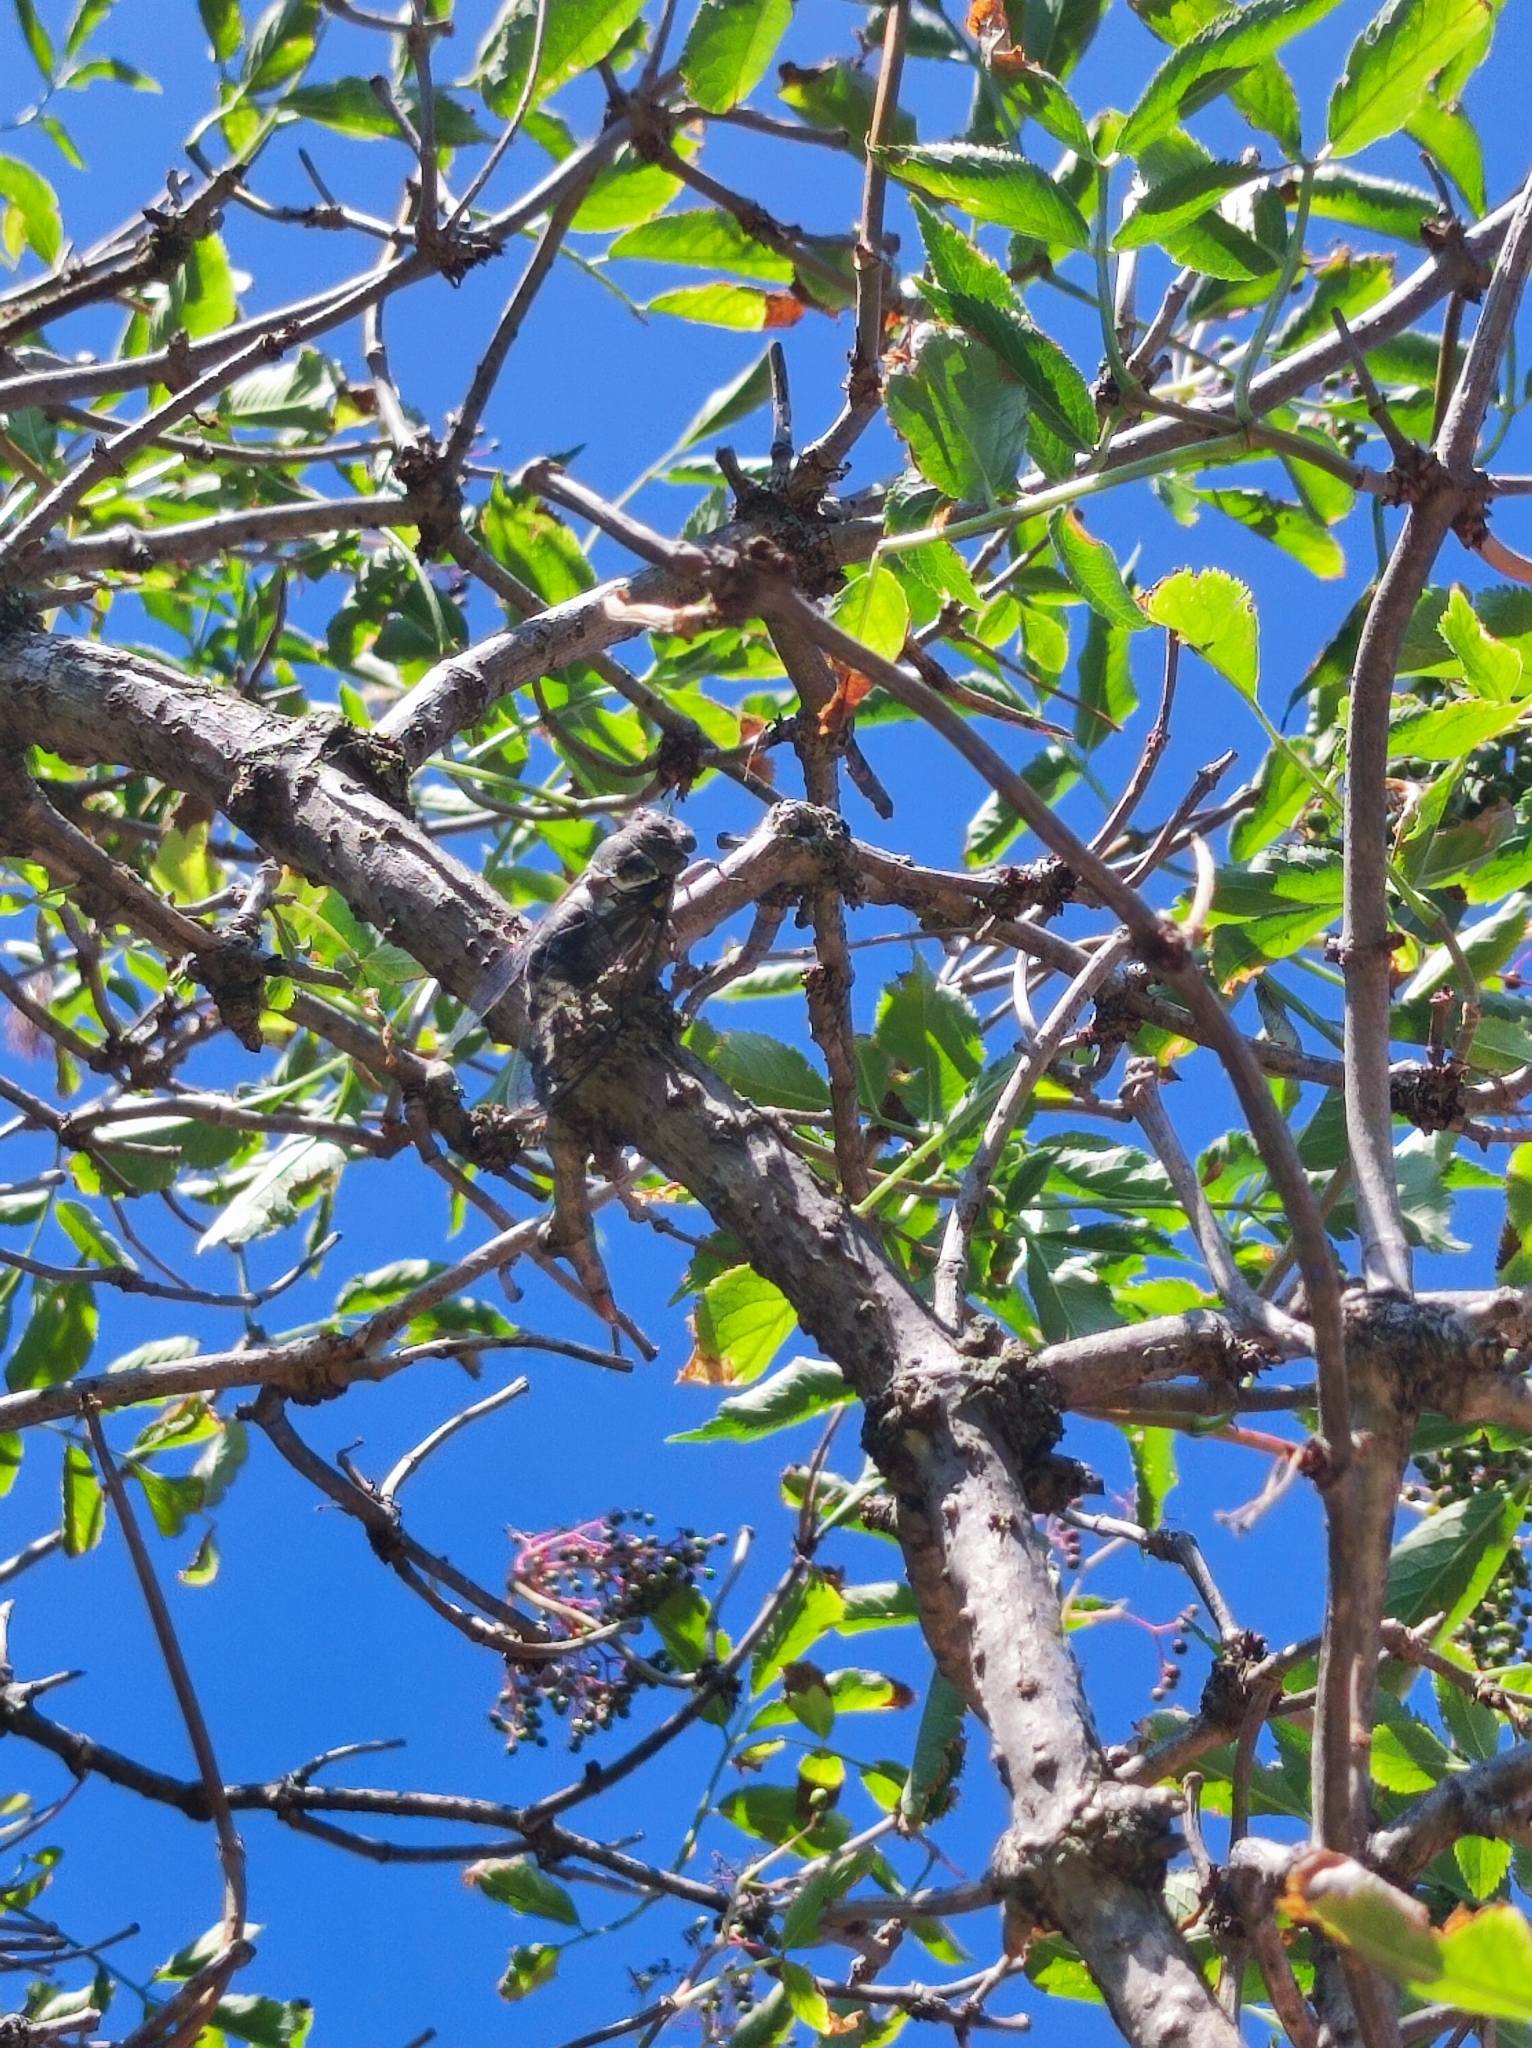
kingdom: Animalia
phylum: Arthropoda
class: Insecta
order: Hemiptera
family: Cicadidae
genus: Lyristes
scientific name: Lyristes plebejus
